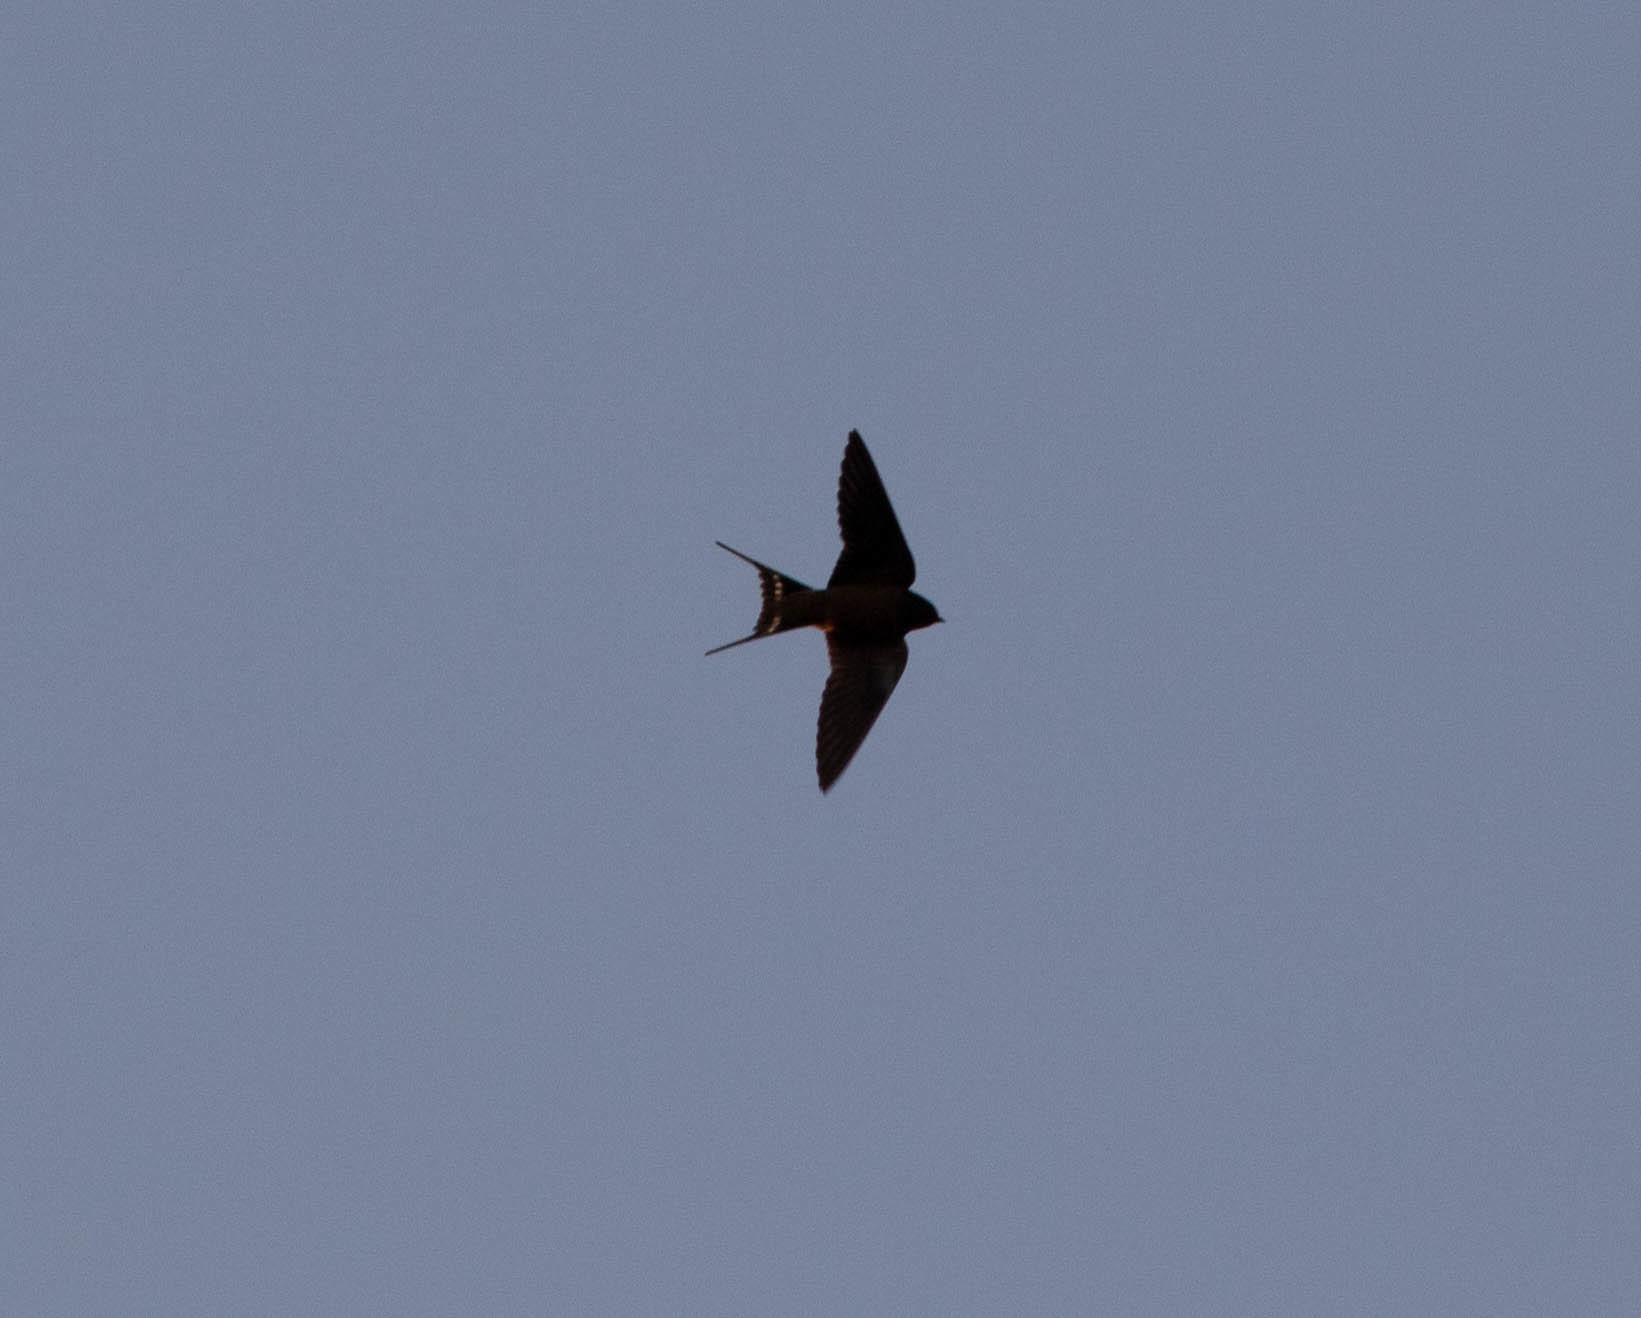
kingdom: Animalia
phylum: Chordata
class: Aves
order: Passeriformes
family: Hirundinidae
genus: Hirundo
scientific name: Hirundo rustica
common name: Barn swallow
